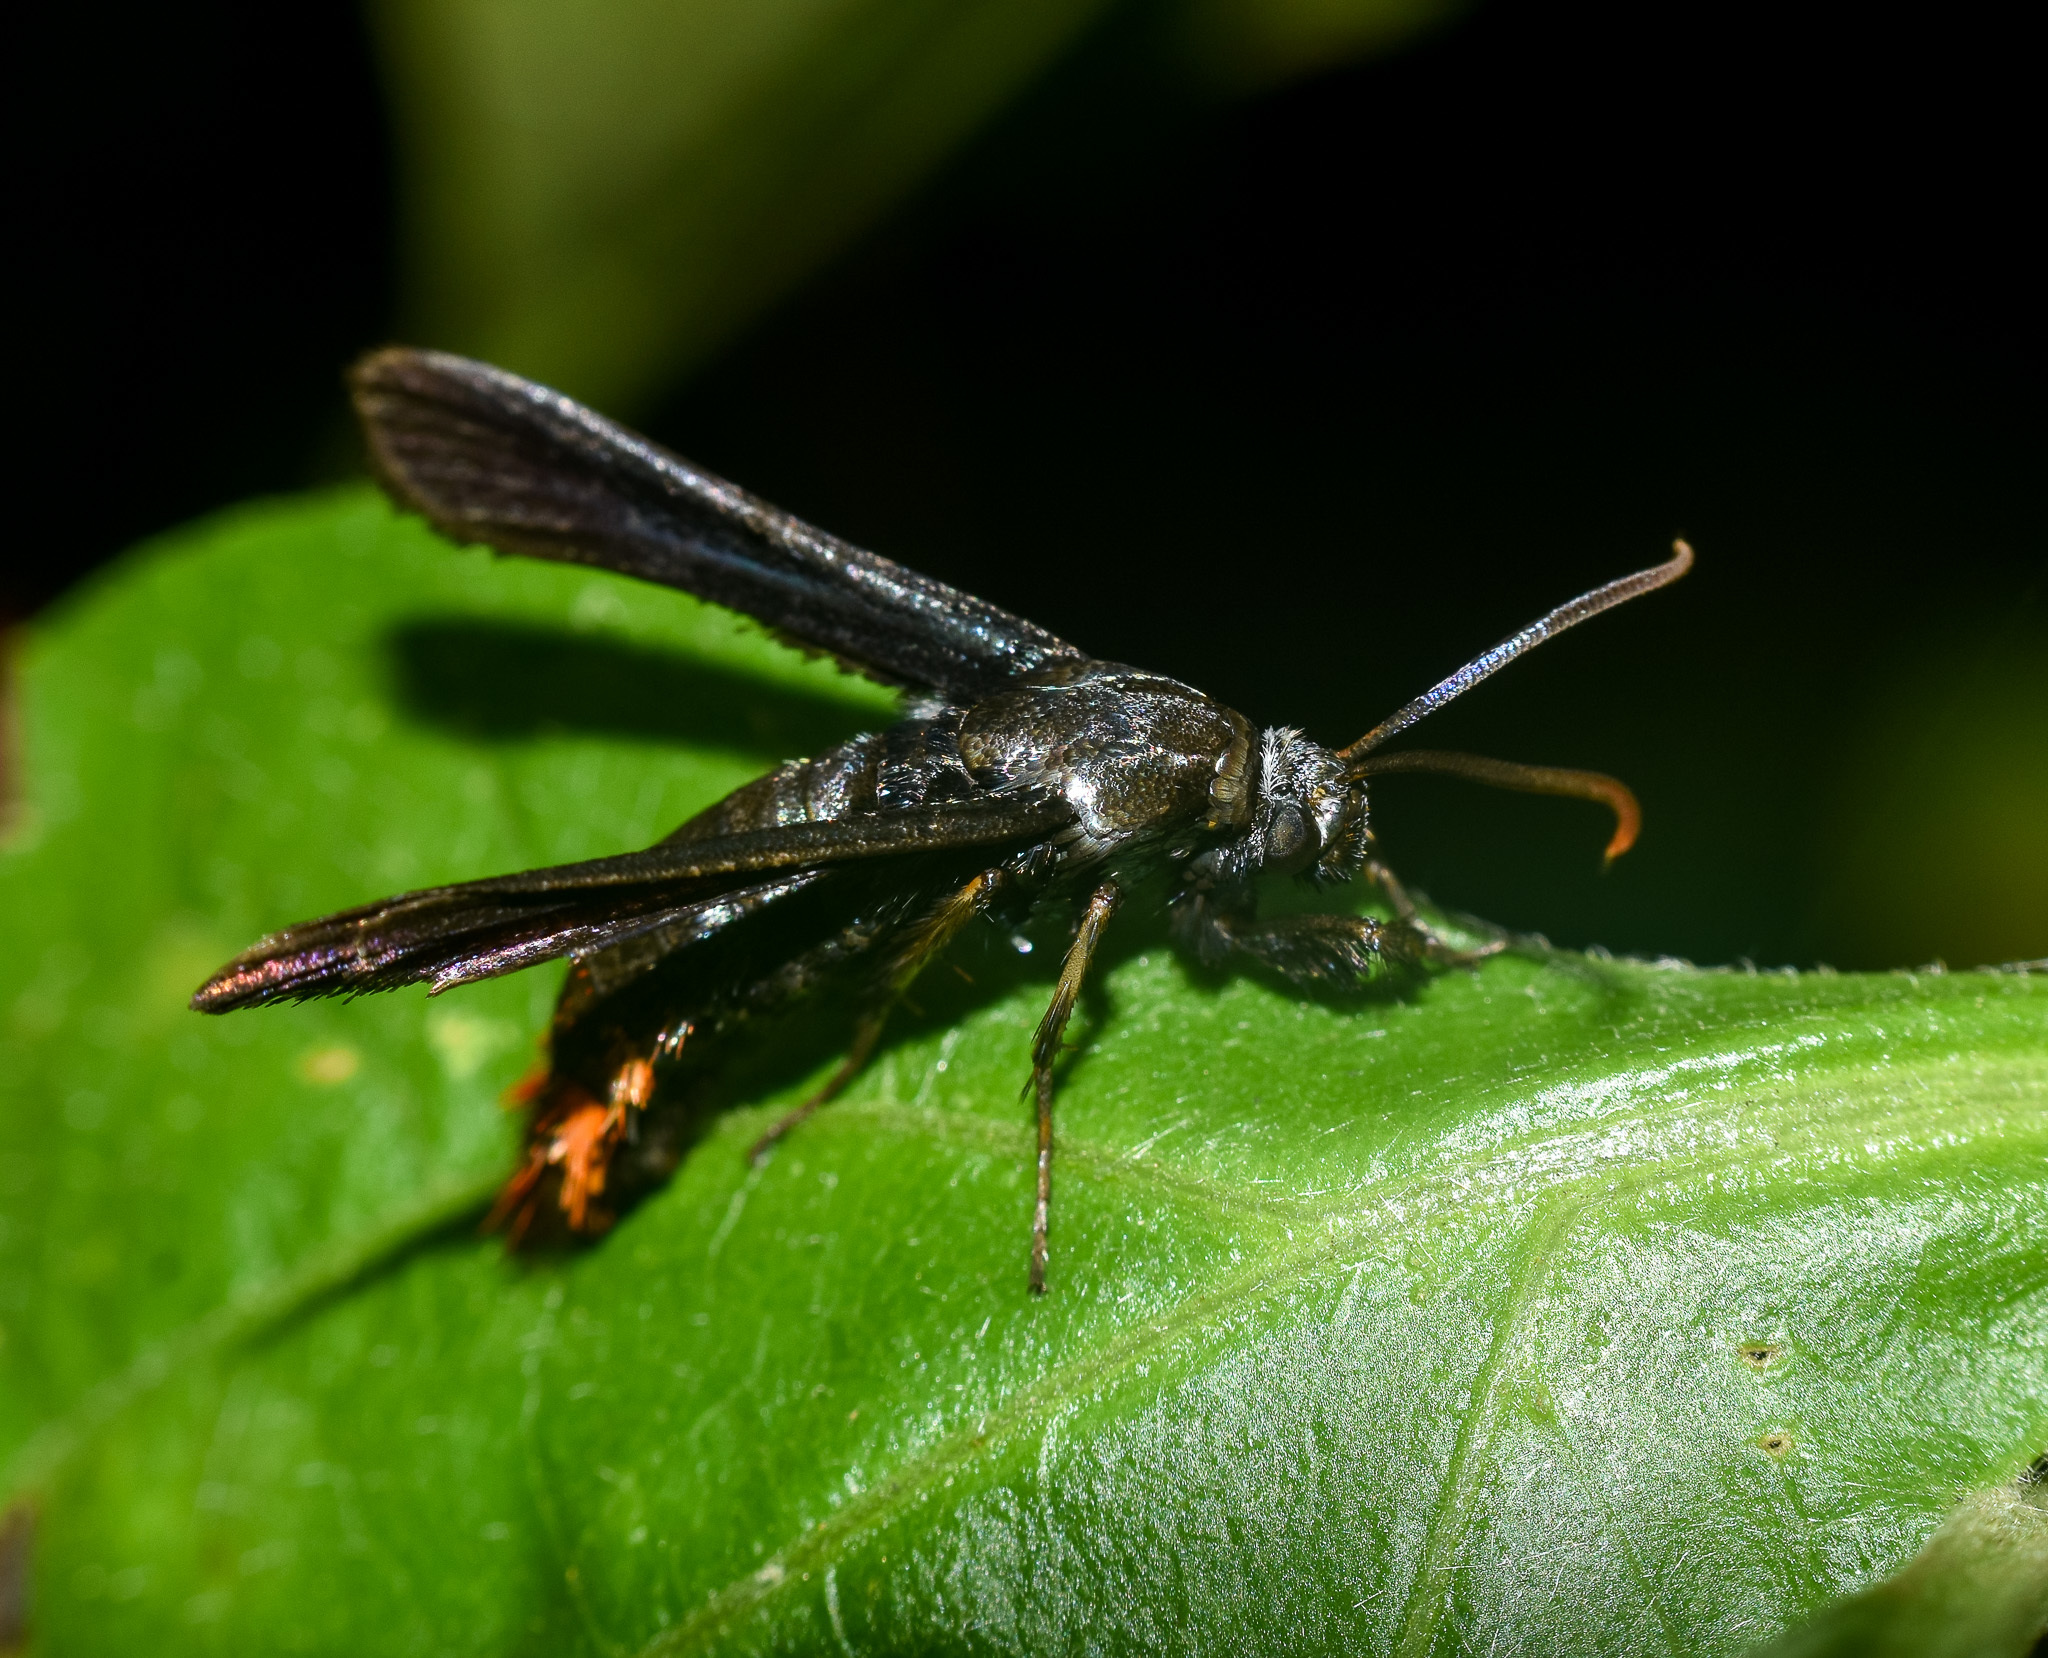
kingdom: Animalia
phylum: Arthropoda
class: Insecta
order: Lepidoptera
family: Sesiidae
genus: Trilochana
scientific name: Trilochana scolioides
